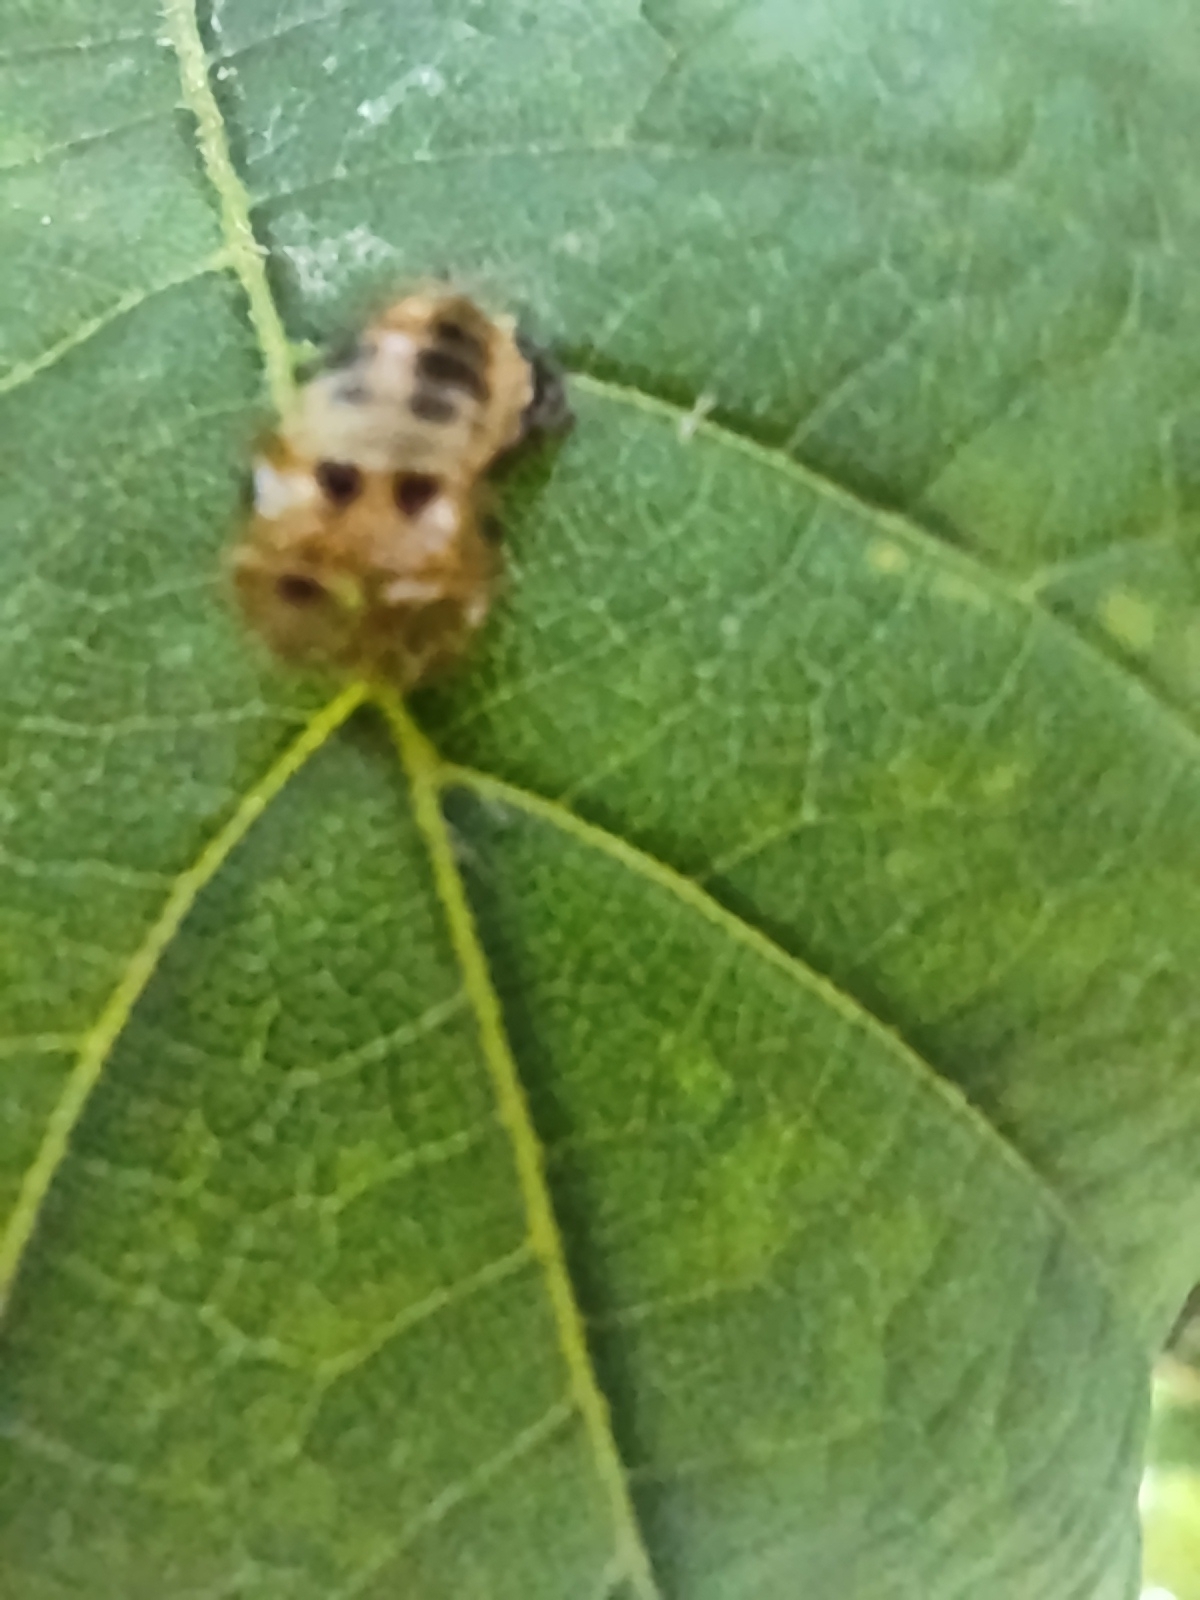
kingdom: Animalia
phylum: Arthropoda
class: Insecta
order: Coleoptera
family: Coccinellidae
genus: Harmonia
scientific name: Harmonia axyridis
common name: Harlequin ladybird
